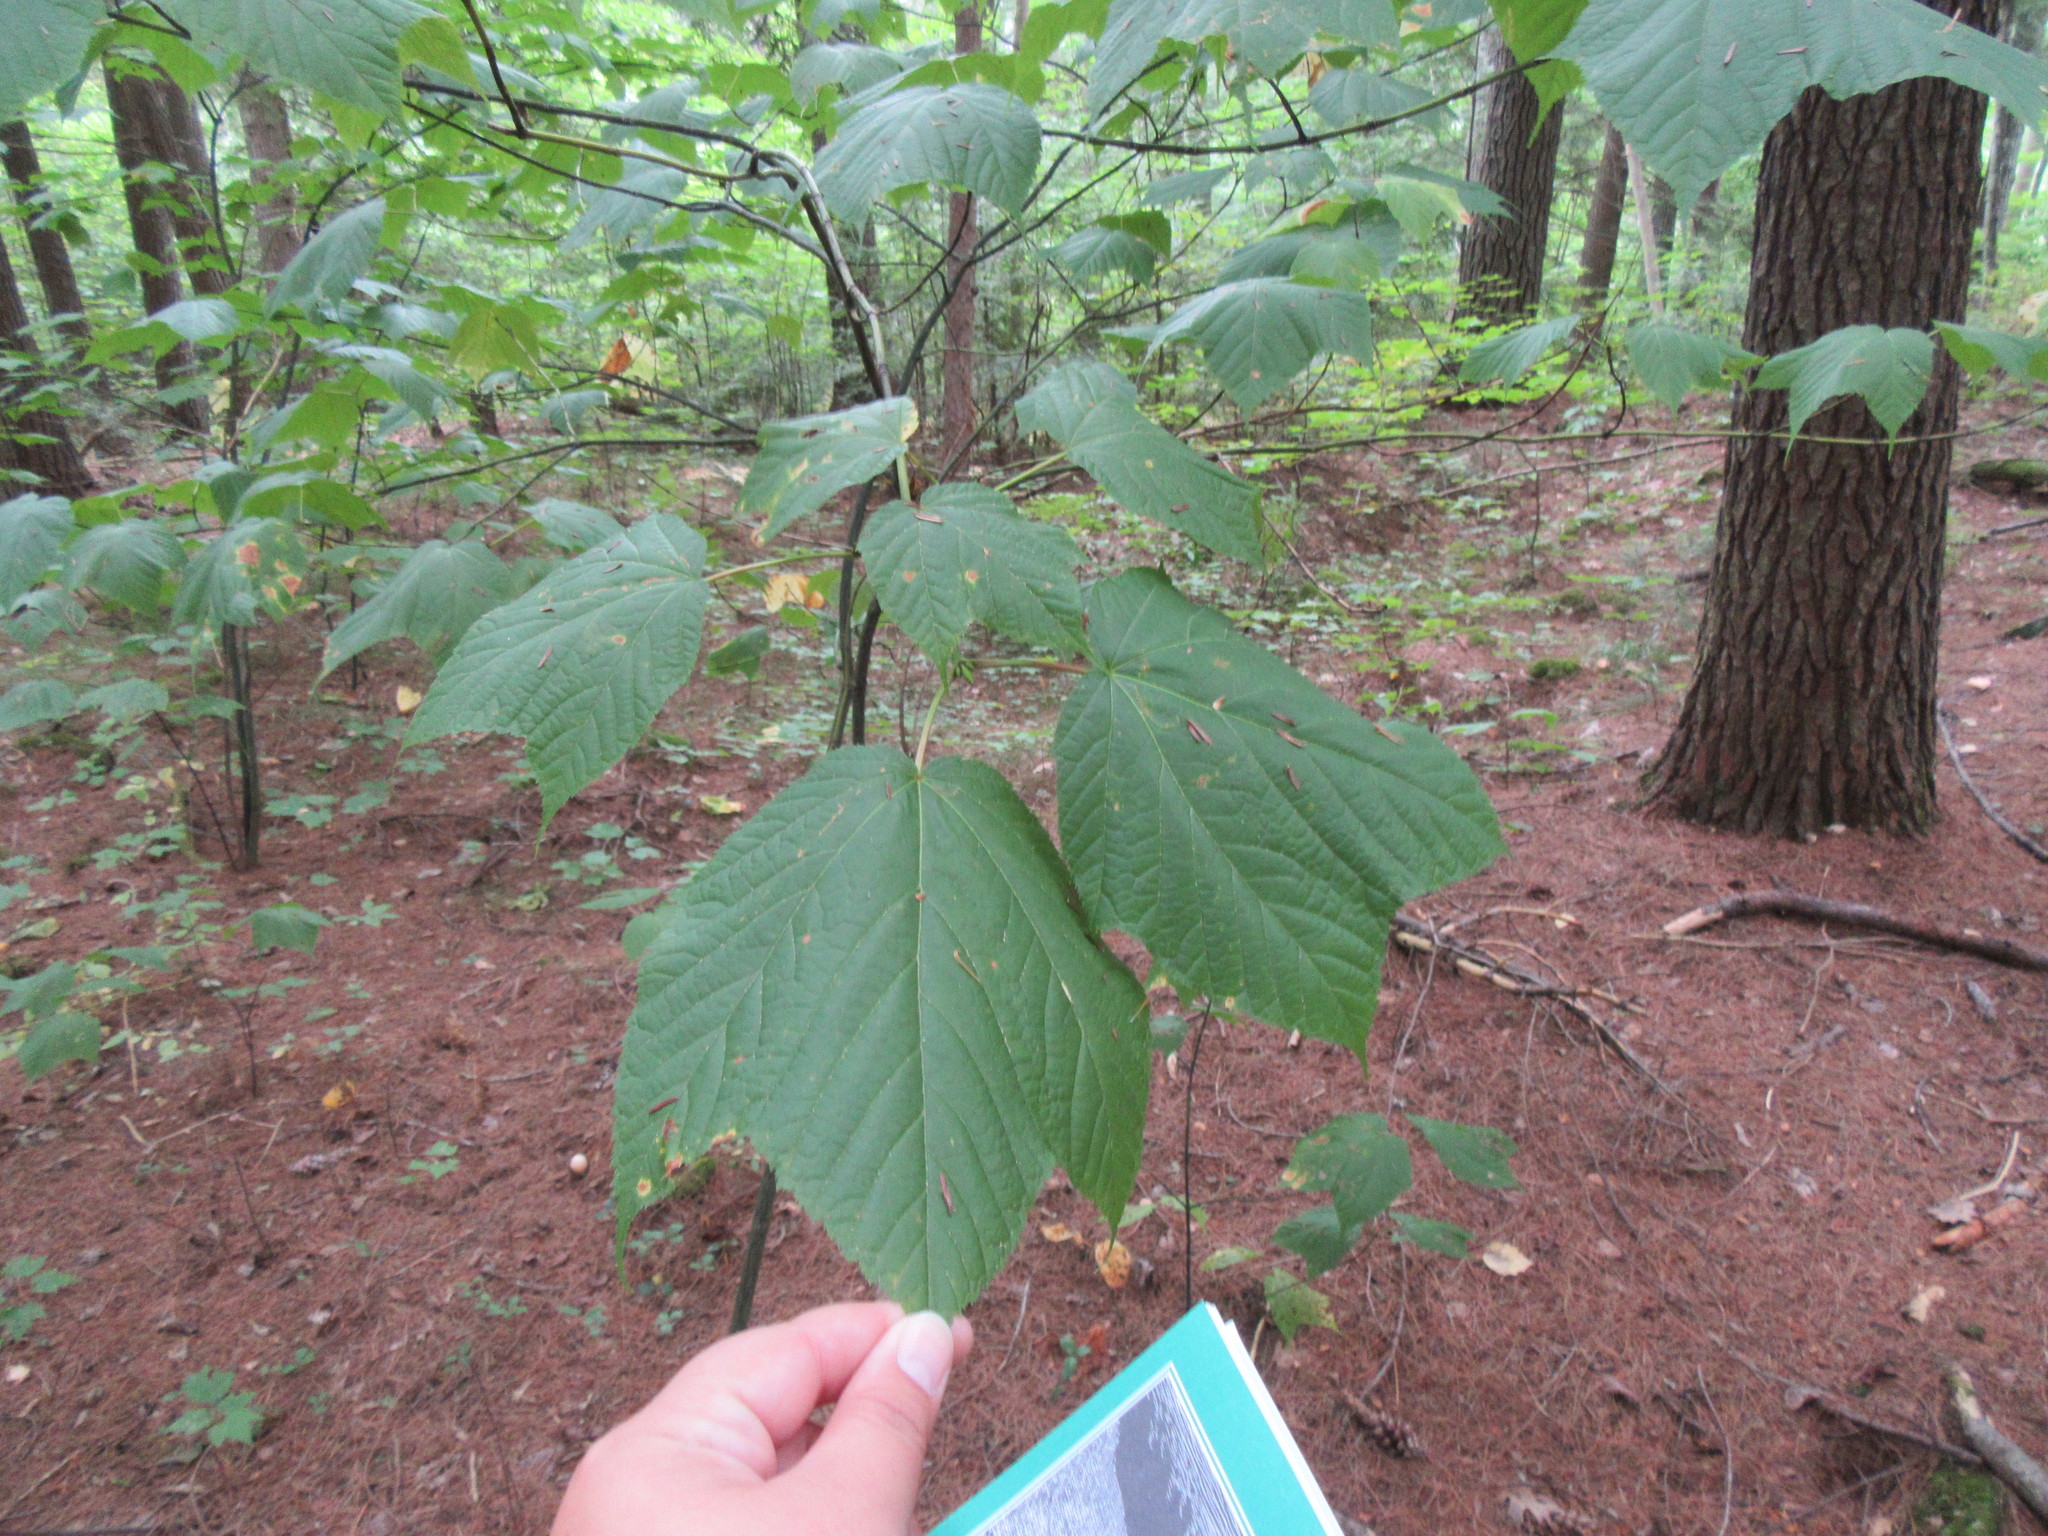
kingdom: Plantae
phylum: Tracheophyta
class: Magnoliopsida
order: Sapindales
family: Sapindaceae
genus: Acer
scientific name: Acer pensylvanicum
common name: Moosewood
